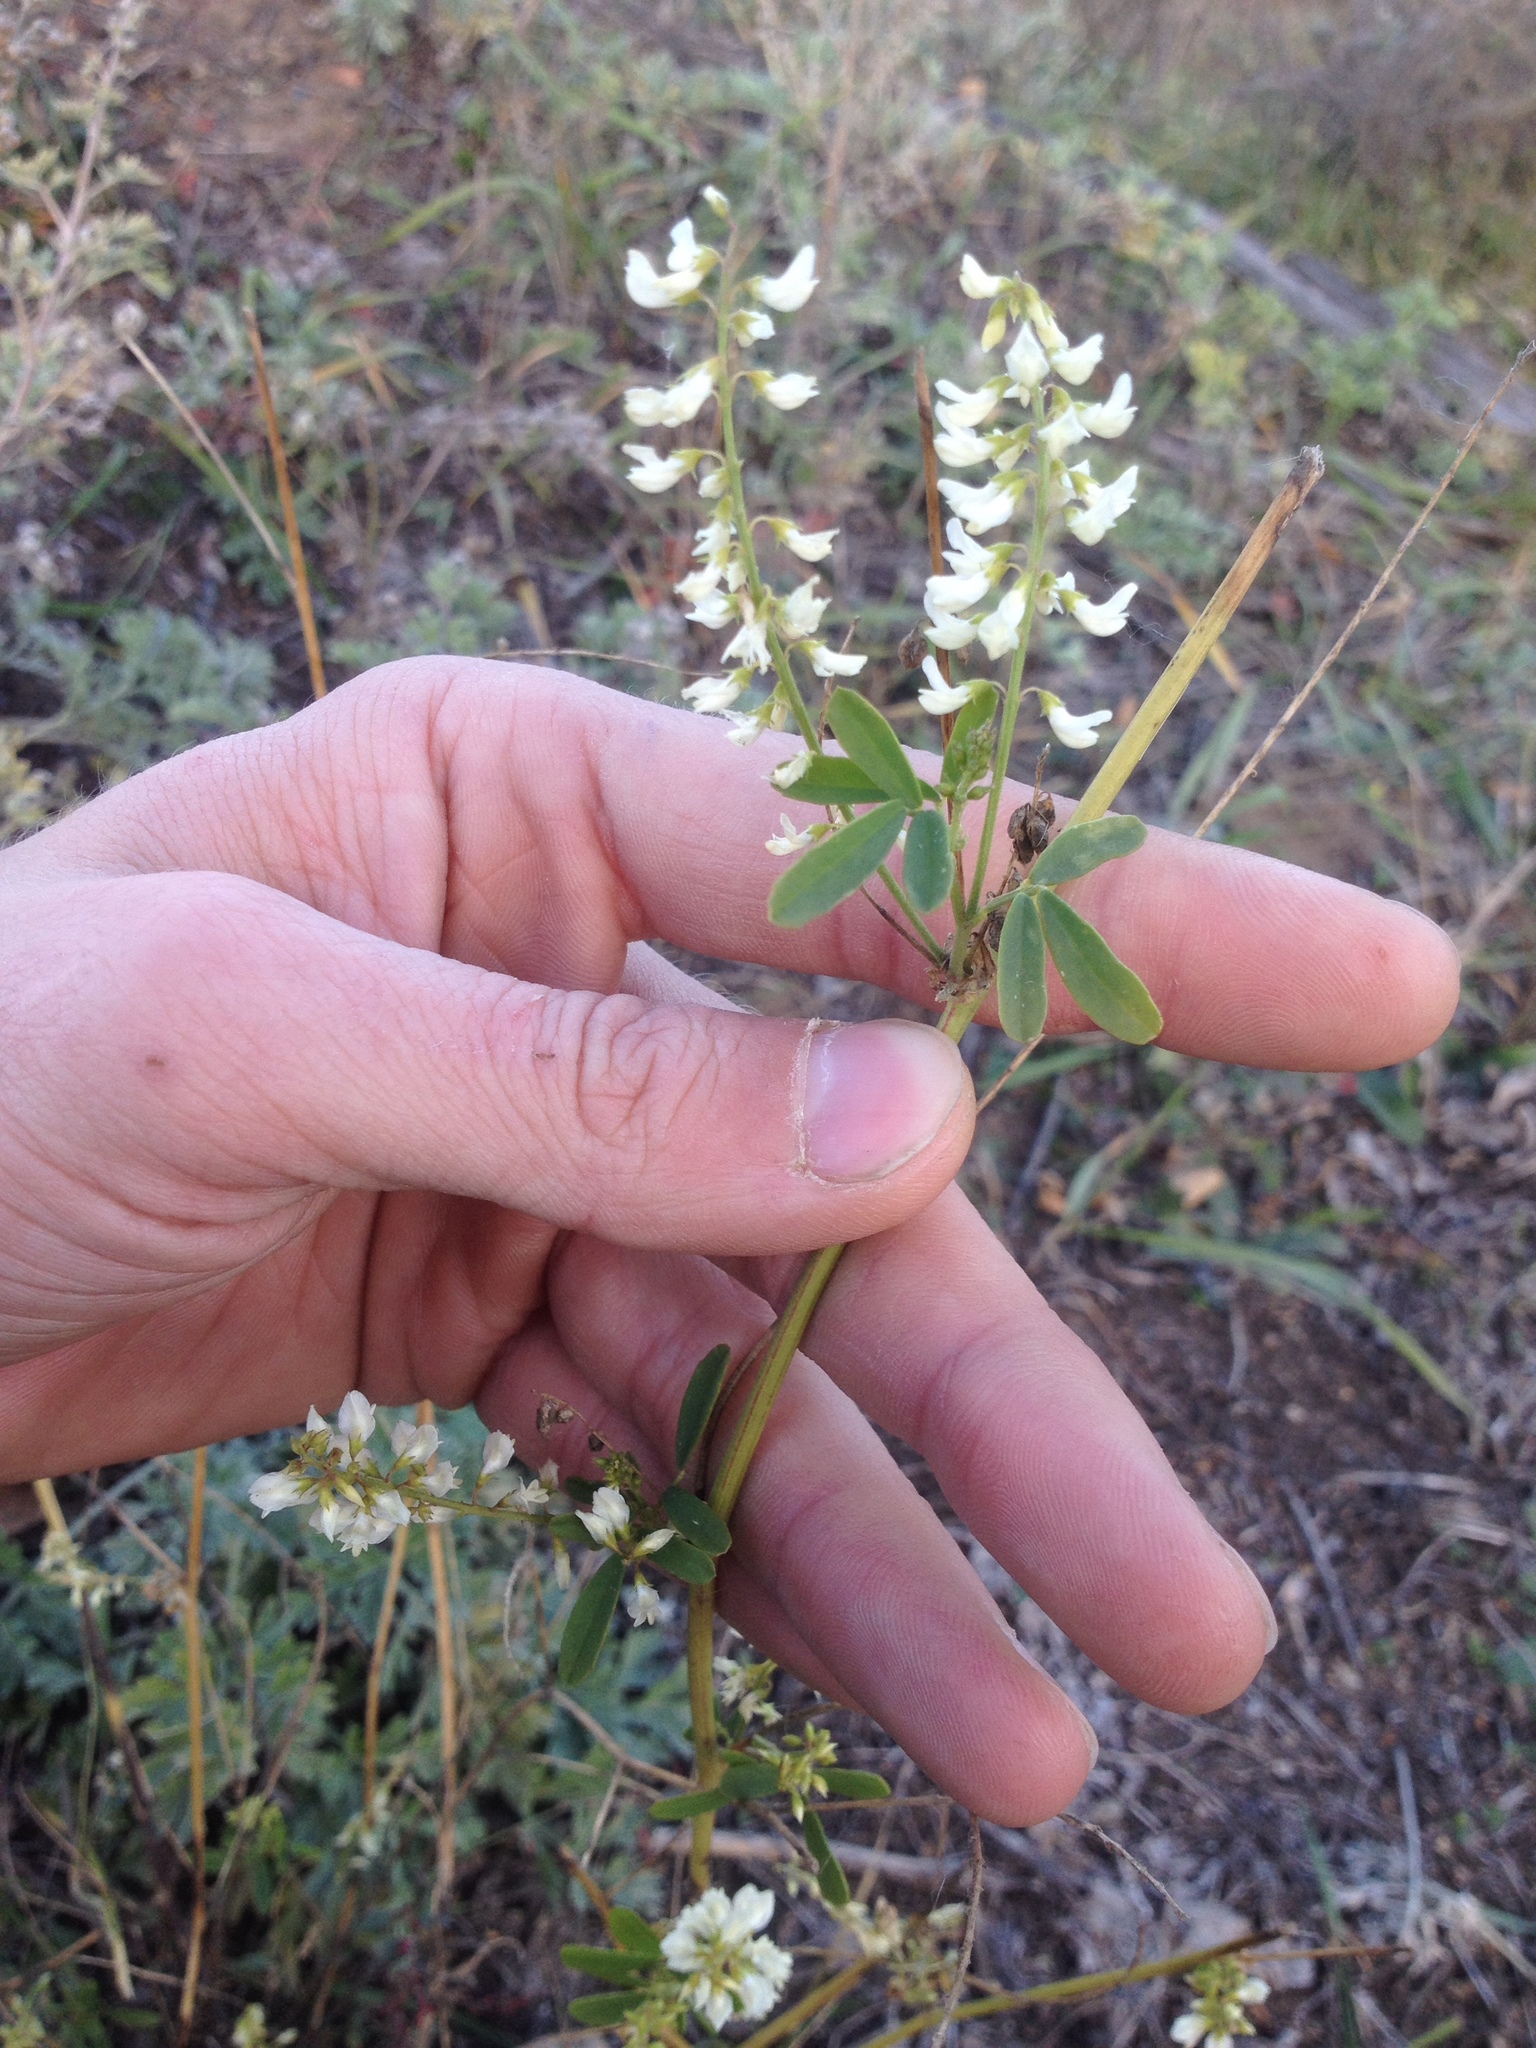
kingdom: Plantae
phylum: Tracheophyta
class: Magnoliopsida
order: Fabales
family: Fabaceae
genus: Melilotus
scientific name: Melilotus albus
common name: White melilot
